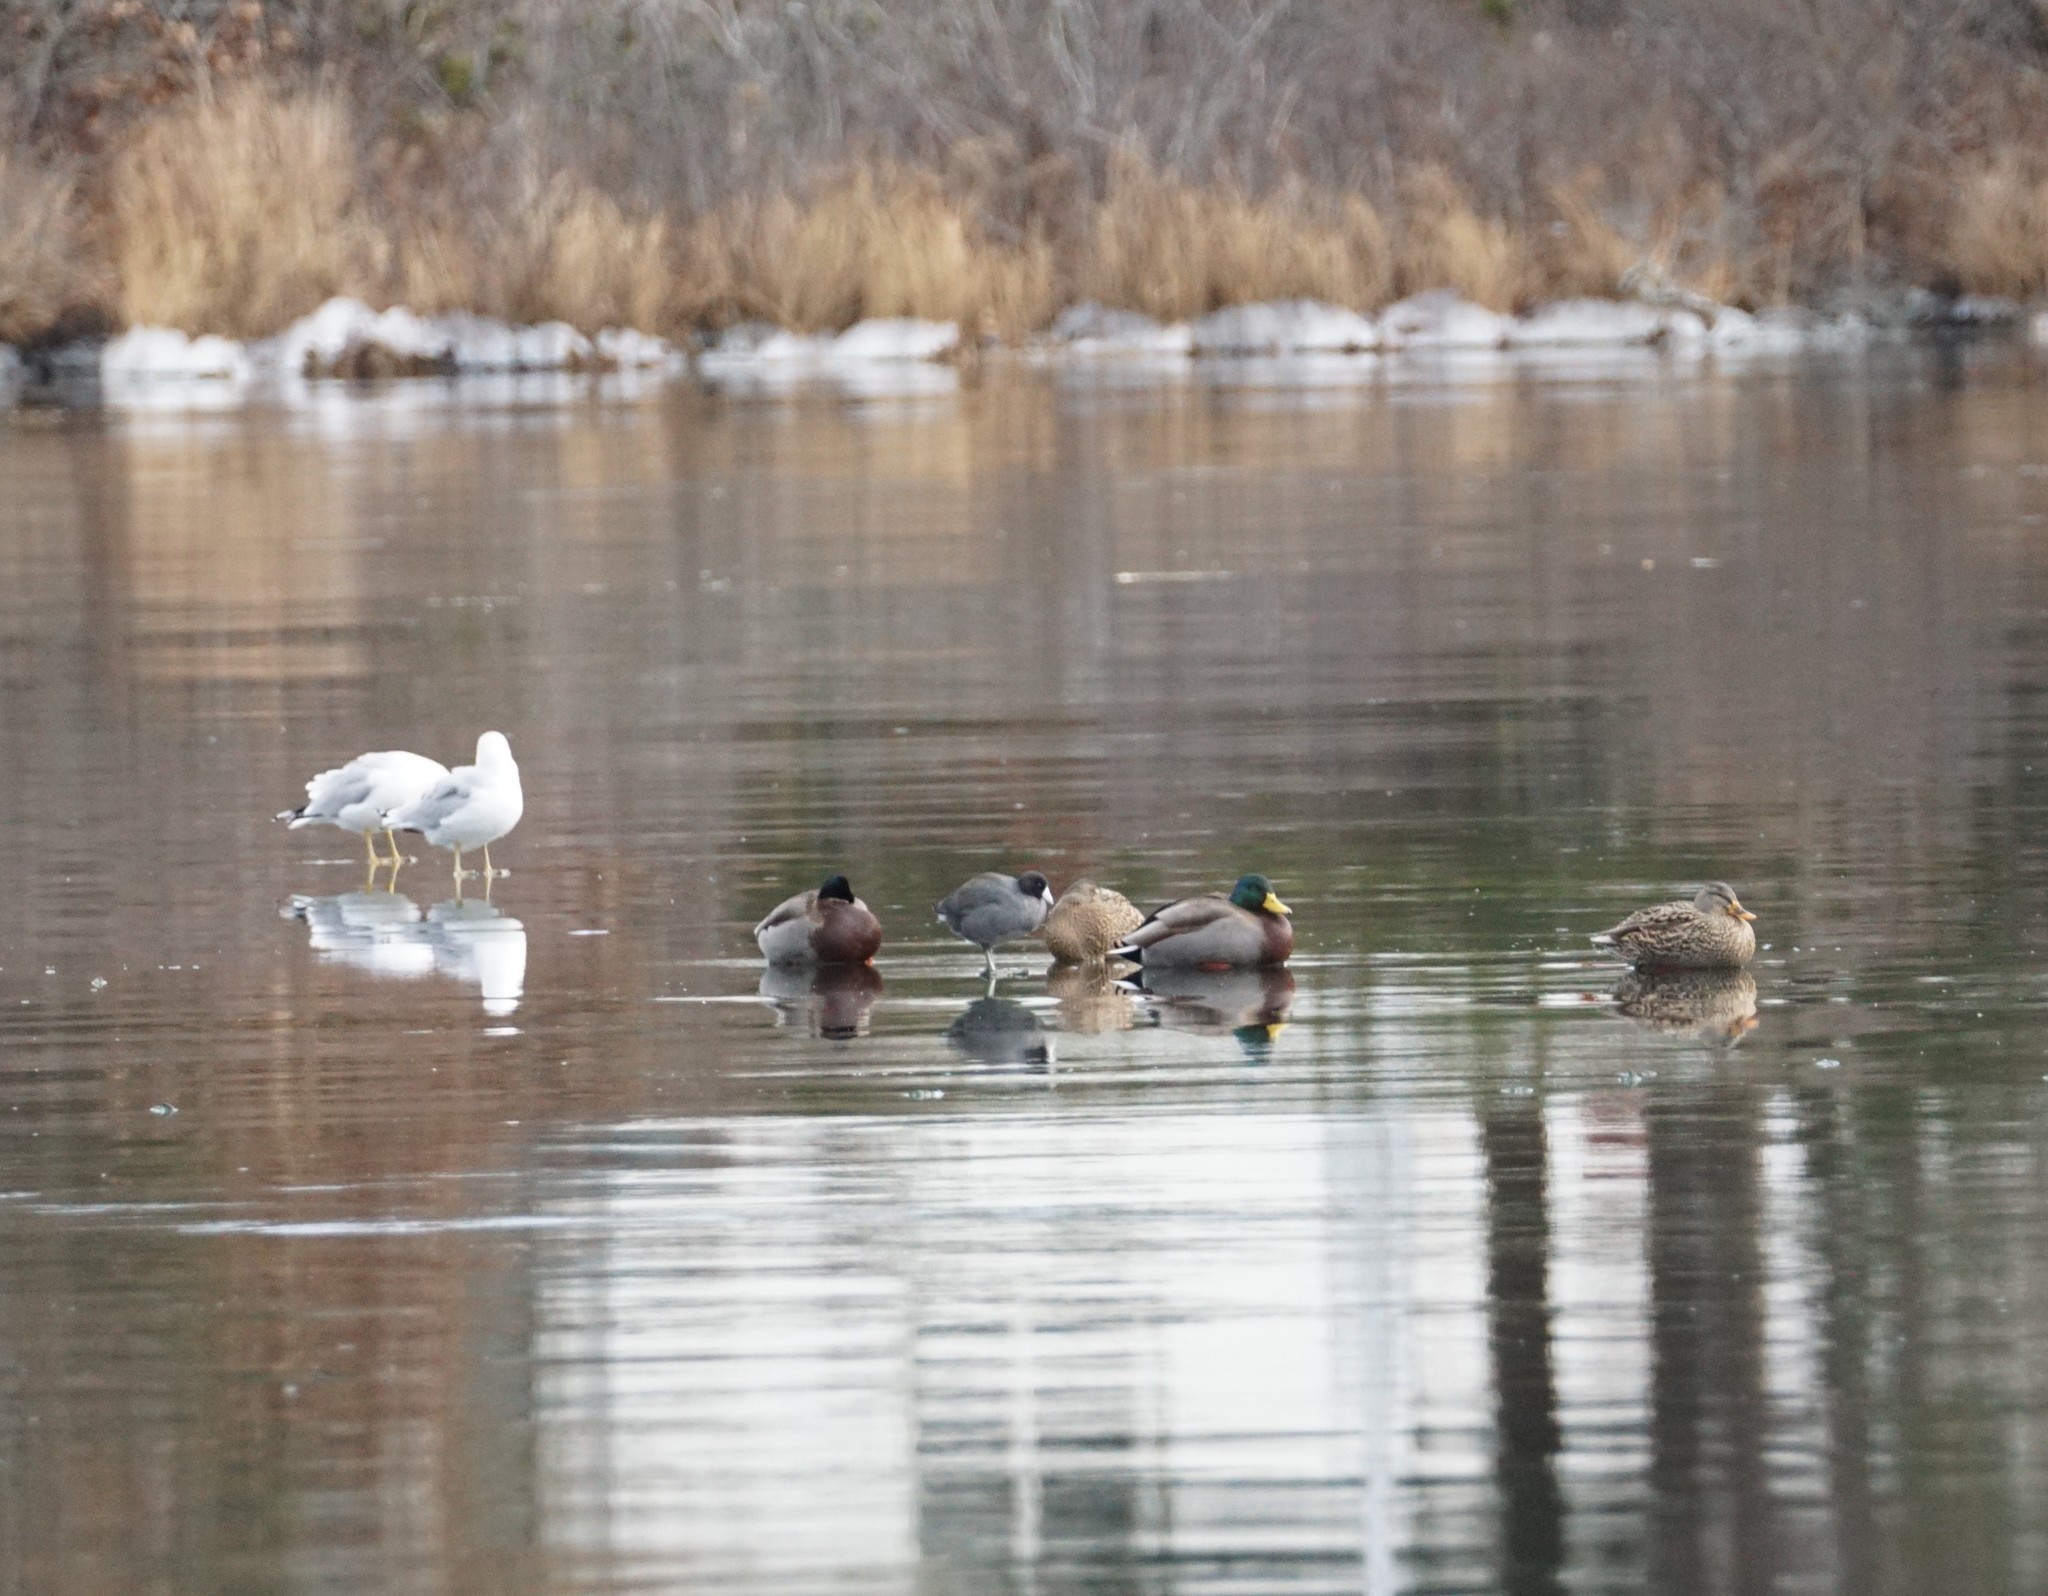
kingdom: Animalia
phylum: Chordata
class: Aves
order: Gruiformes
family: Rallidae
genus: Fulica
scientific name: Fulica americana
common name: American coot
